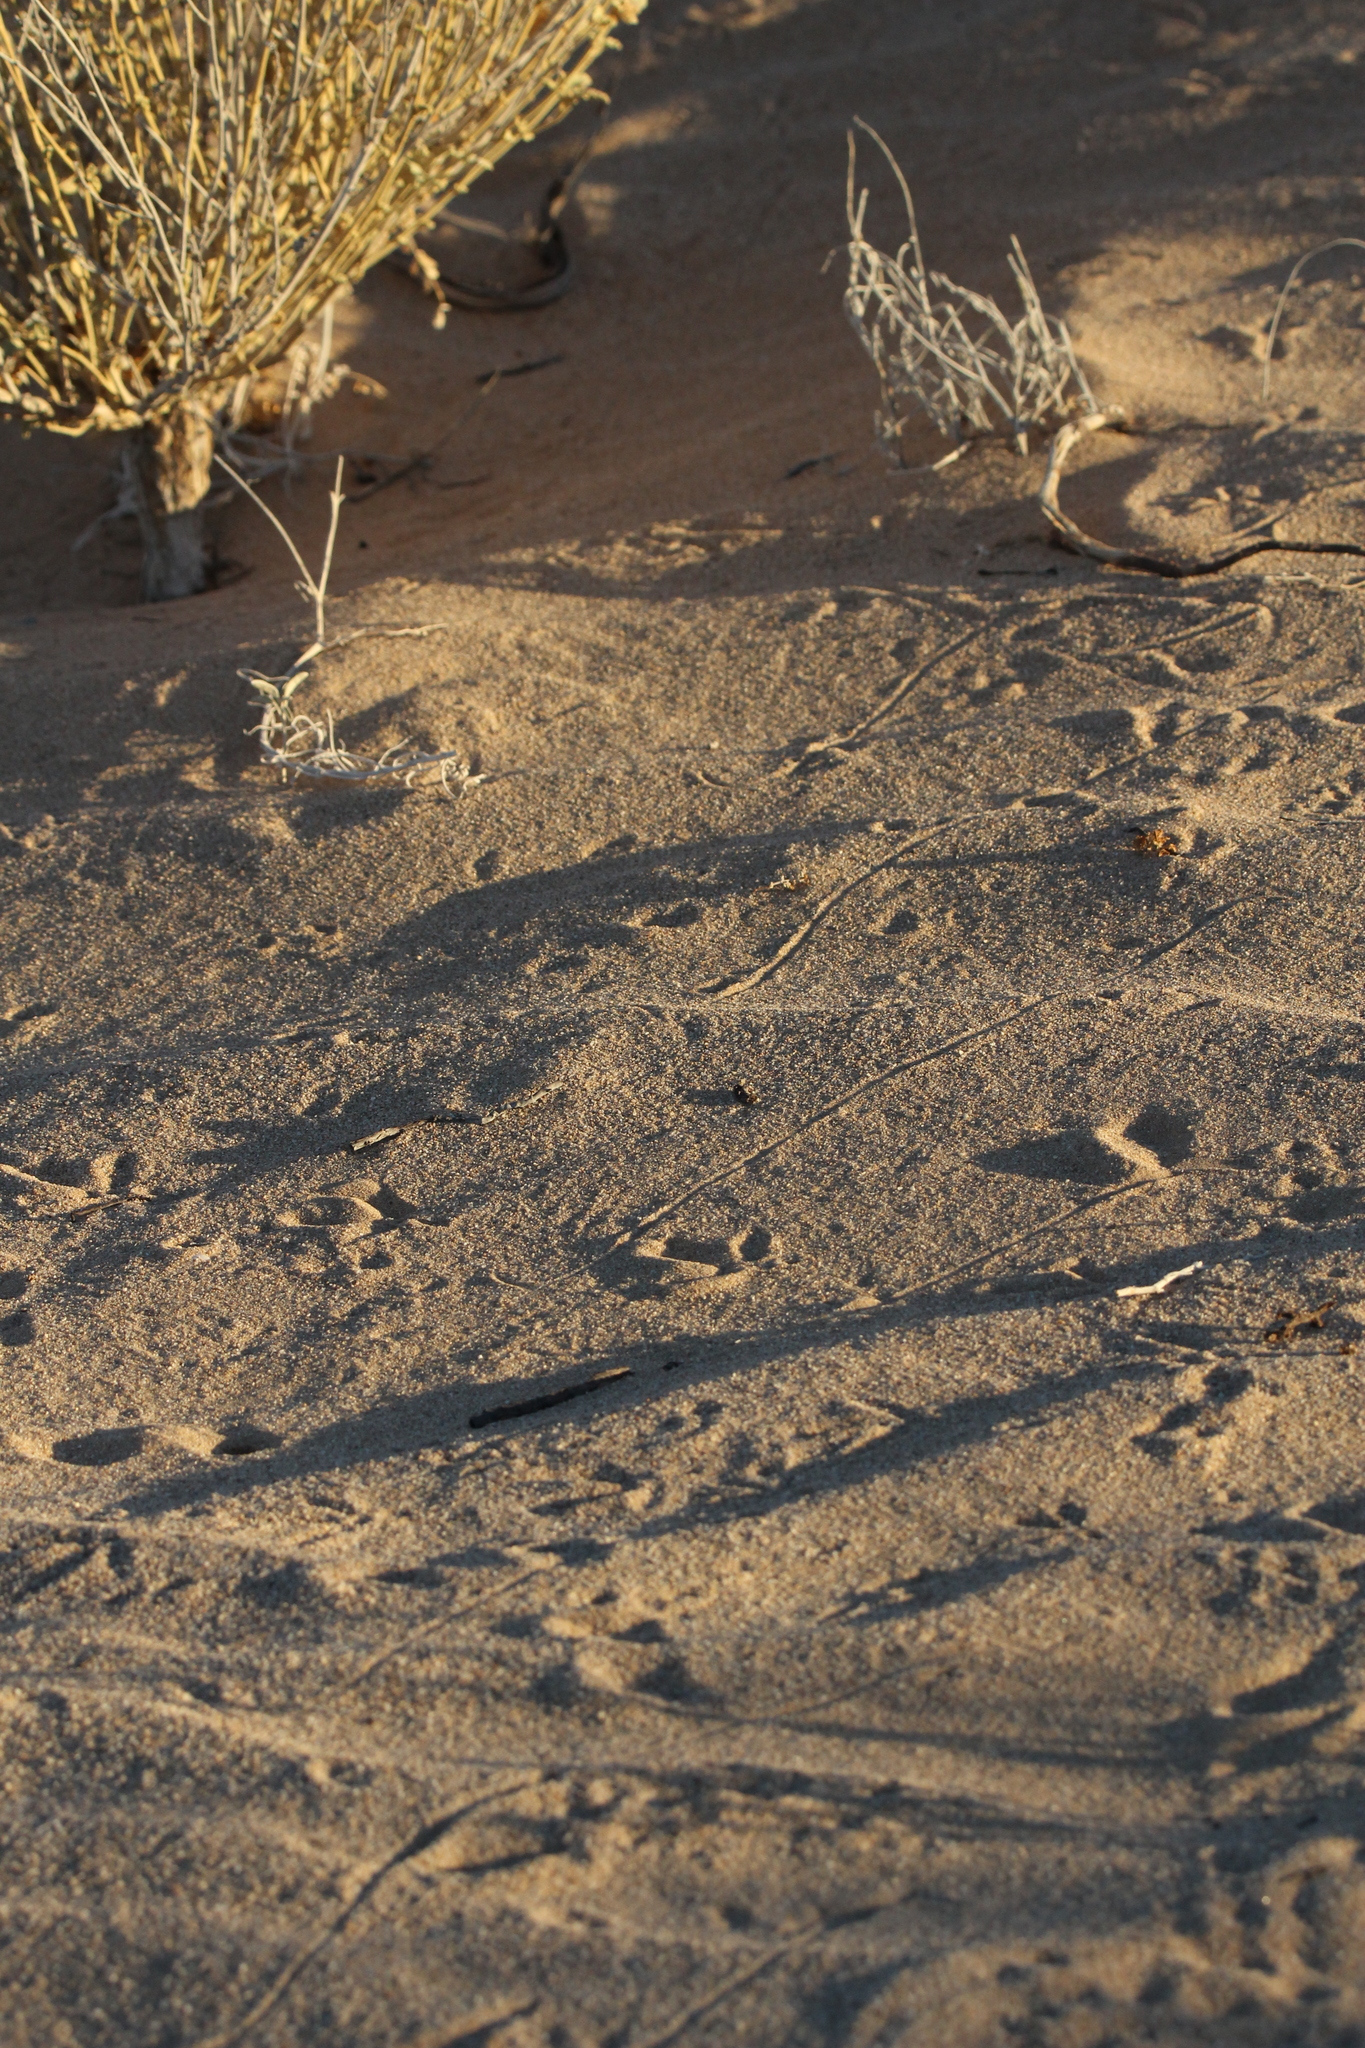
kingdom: Animalia
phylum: Chordata
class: Squamata
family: Viperidae
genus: Crotalus
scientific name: Crotalus cerastes
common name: Sidewinder
